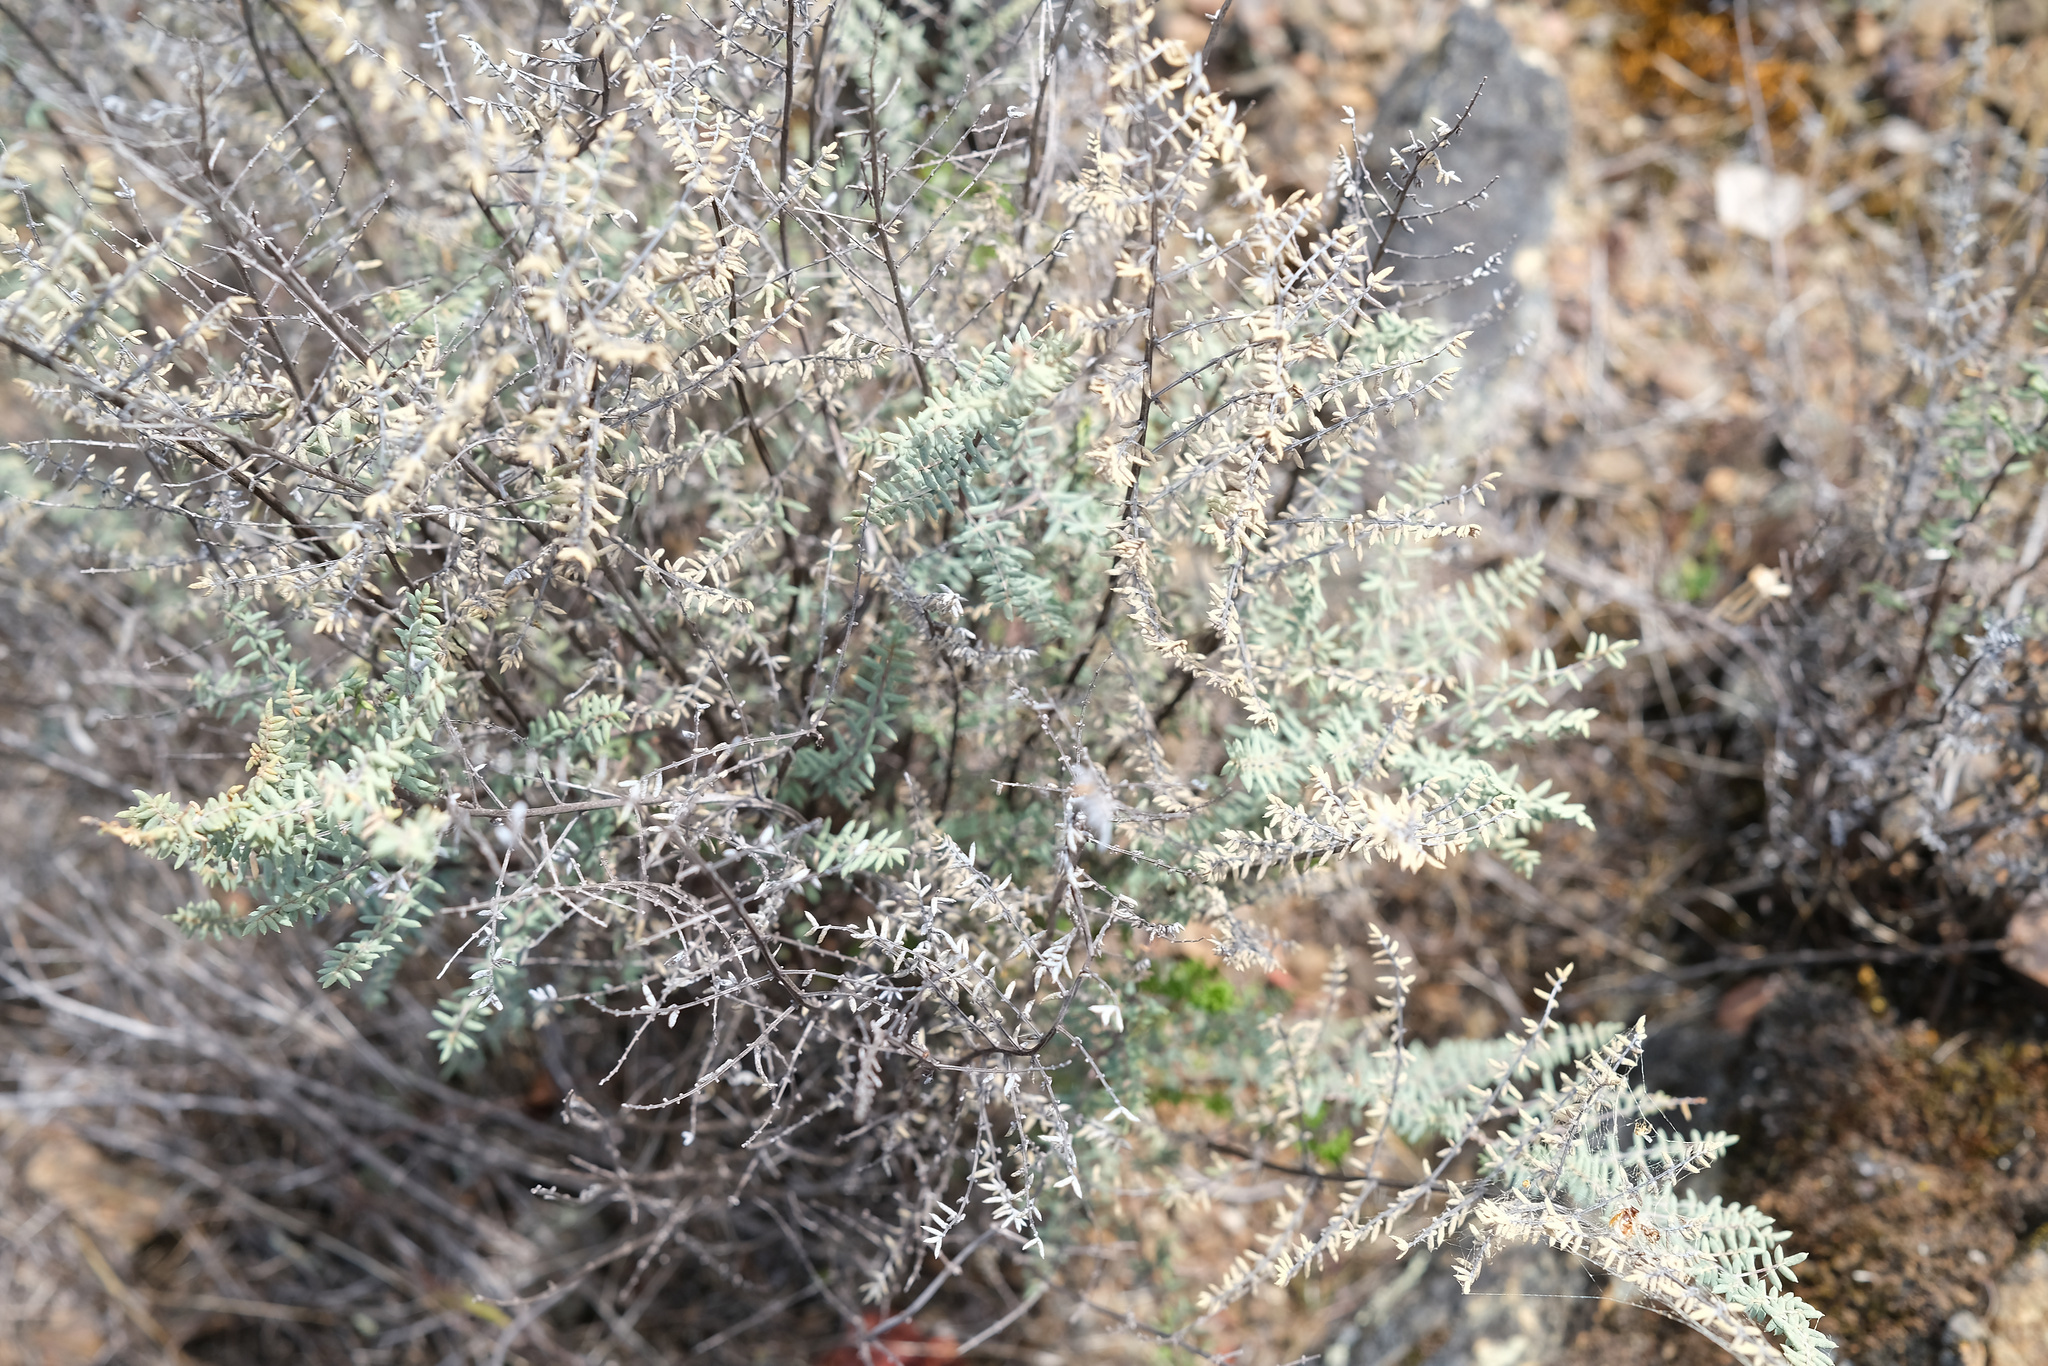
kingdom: Plantae
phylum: Tracheophyta
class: Polypodiopsida
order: Polypodiales
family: Pteridaceae
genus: Pellaea
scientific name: Pellaea mucronata
